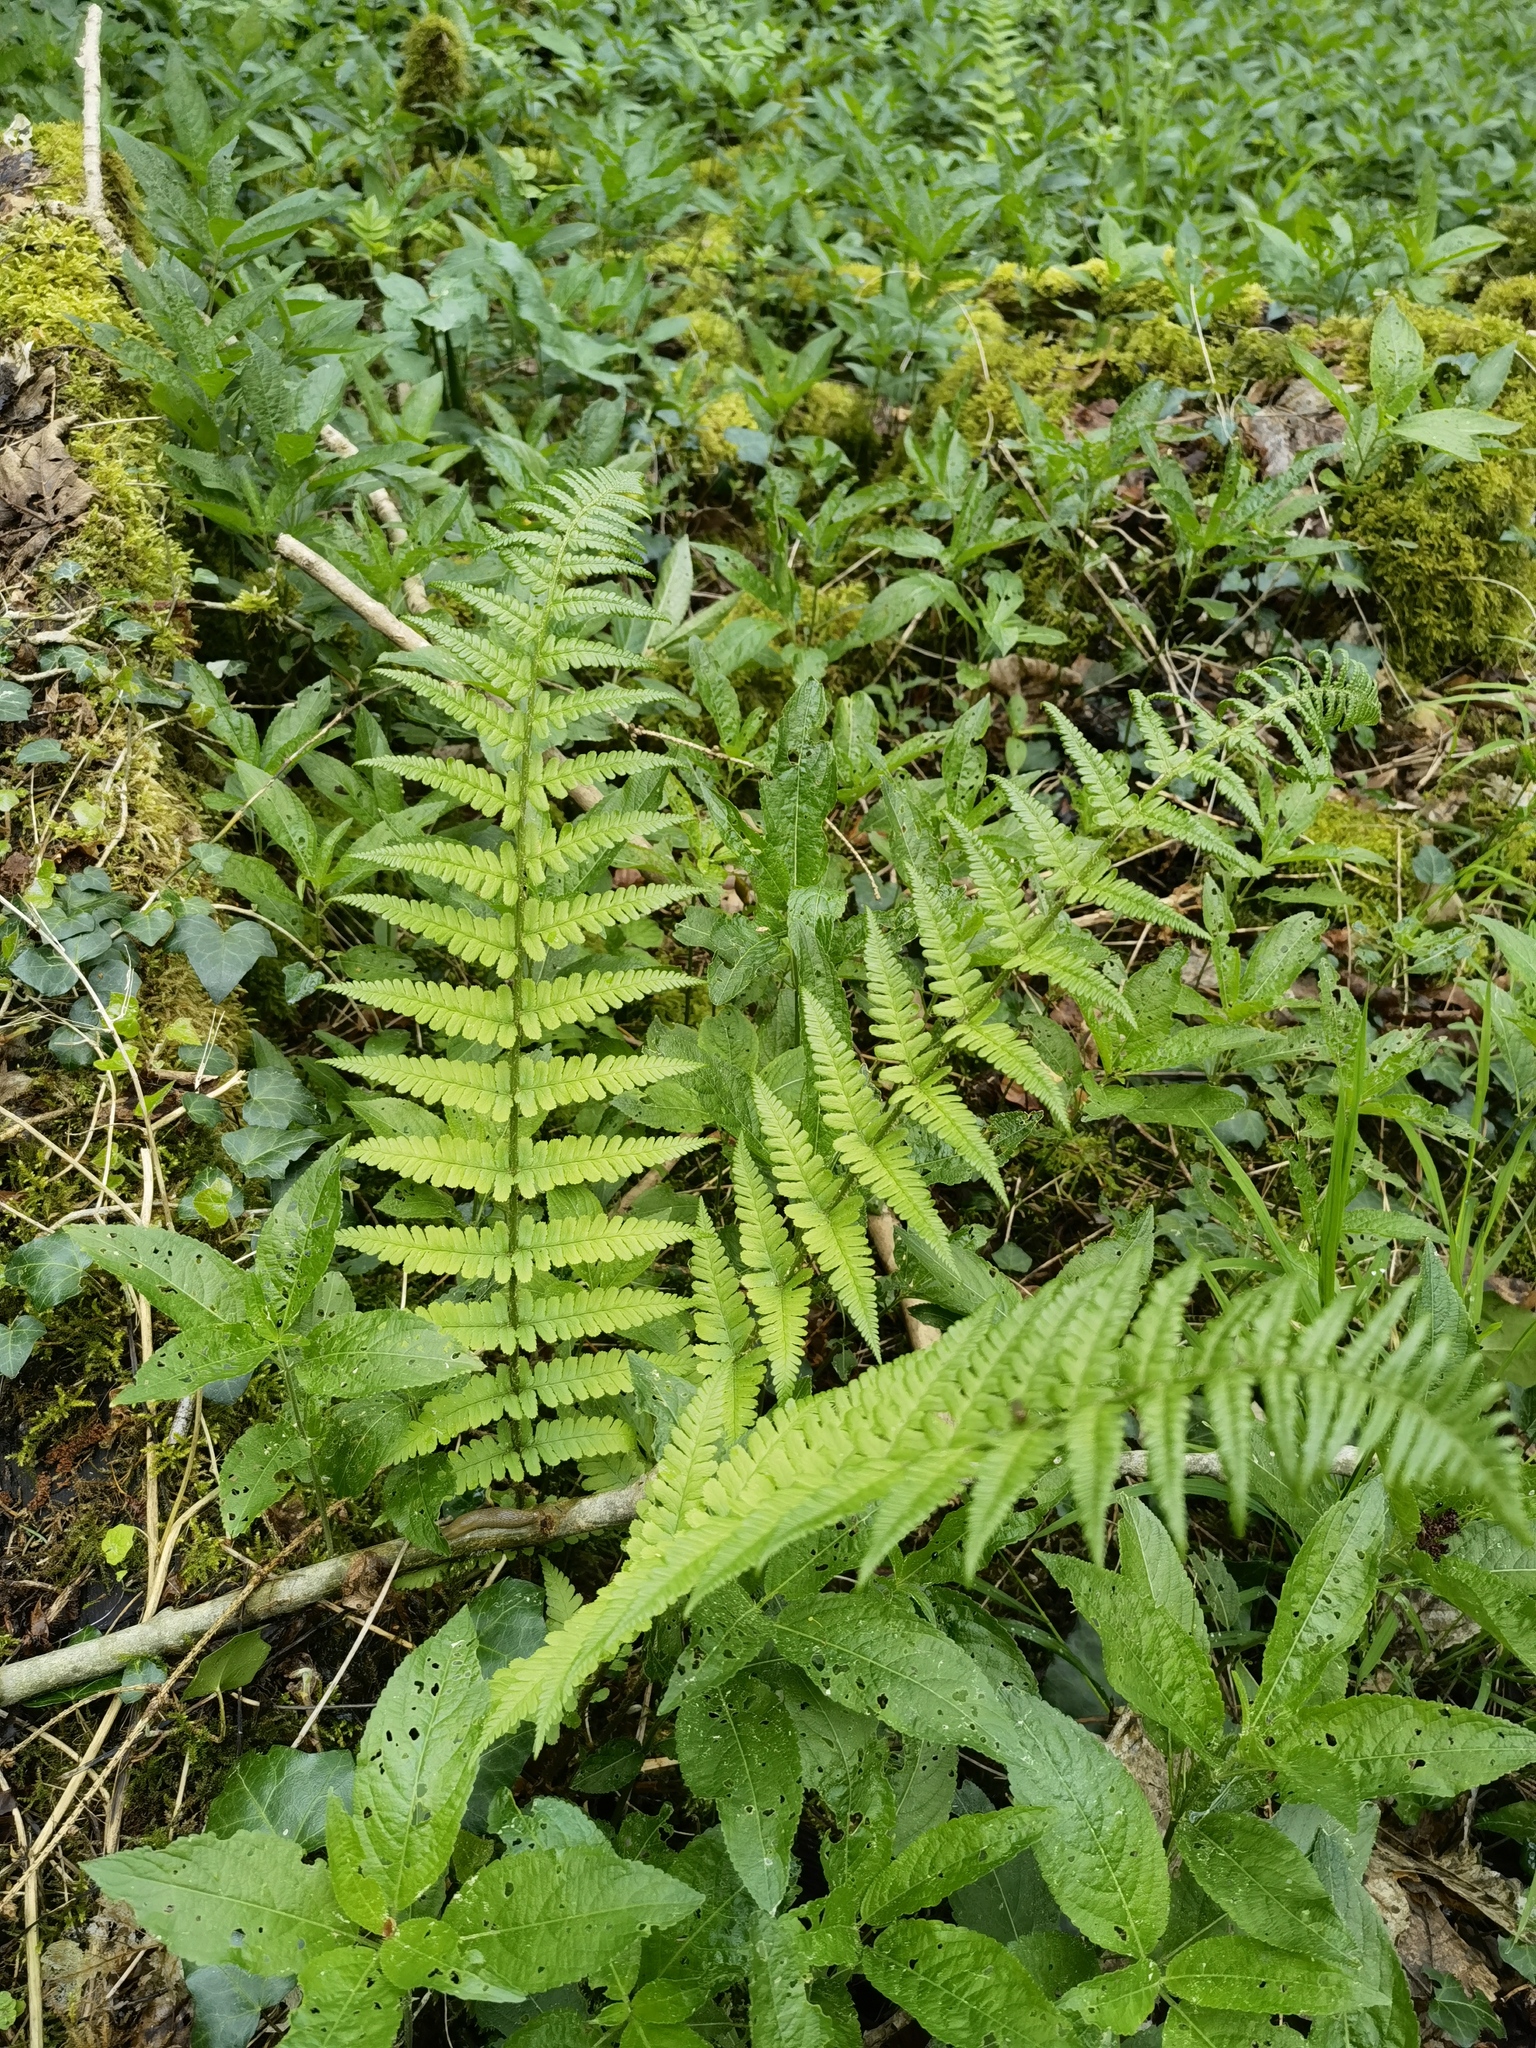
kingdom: Plantae
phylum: Tracheophyta
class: Polypodiopsida
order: Polypodiales
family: Dryopteridaceae
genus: Dryopteris
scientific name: Dryopteris filix-mas
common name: Male fern
